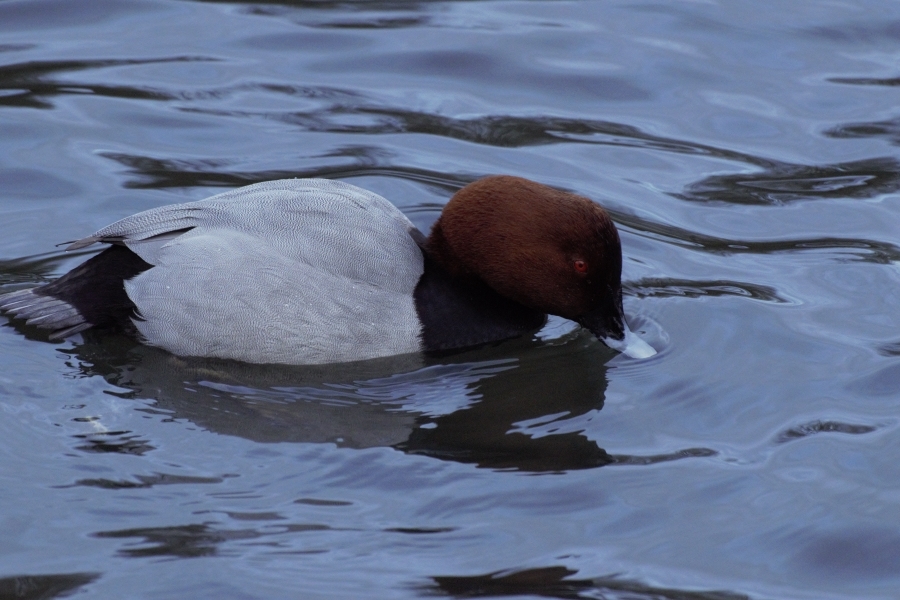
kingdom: Animalia
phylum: Chordata
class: Aves
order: Anseriformes
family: Anatidae
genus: Aythya
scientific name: Aythya ferina
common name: Common pochard
